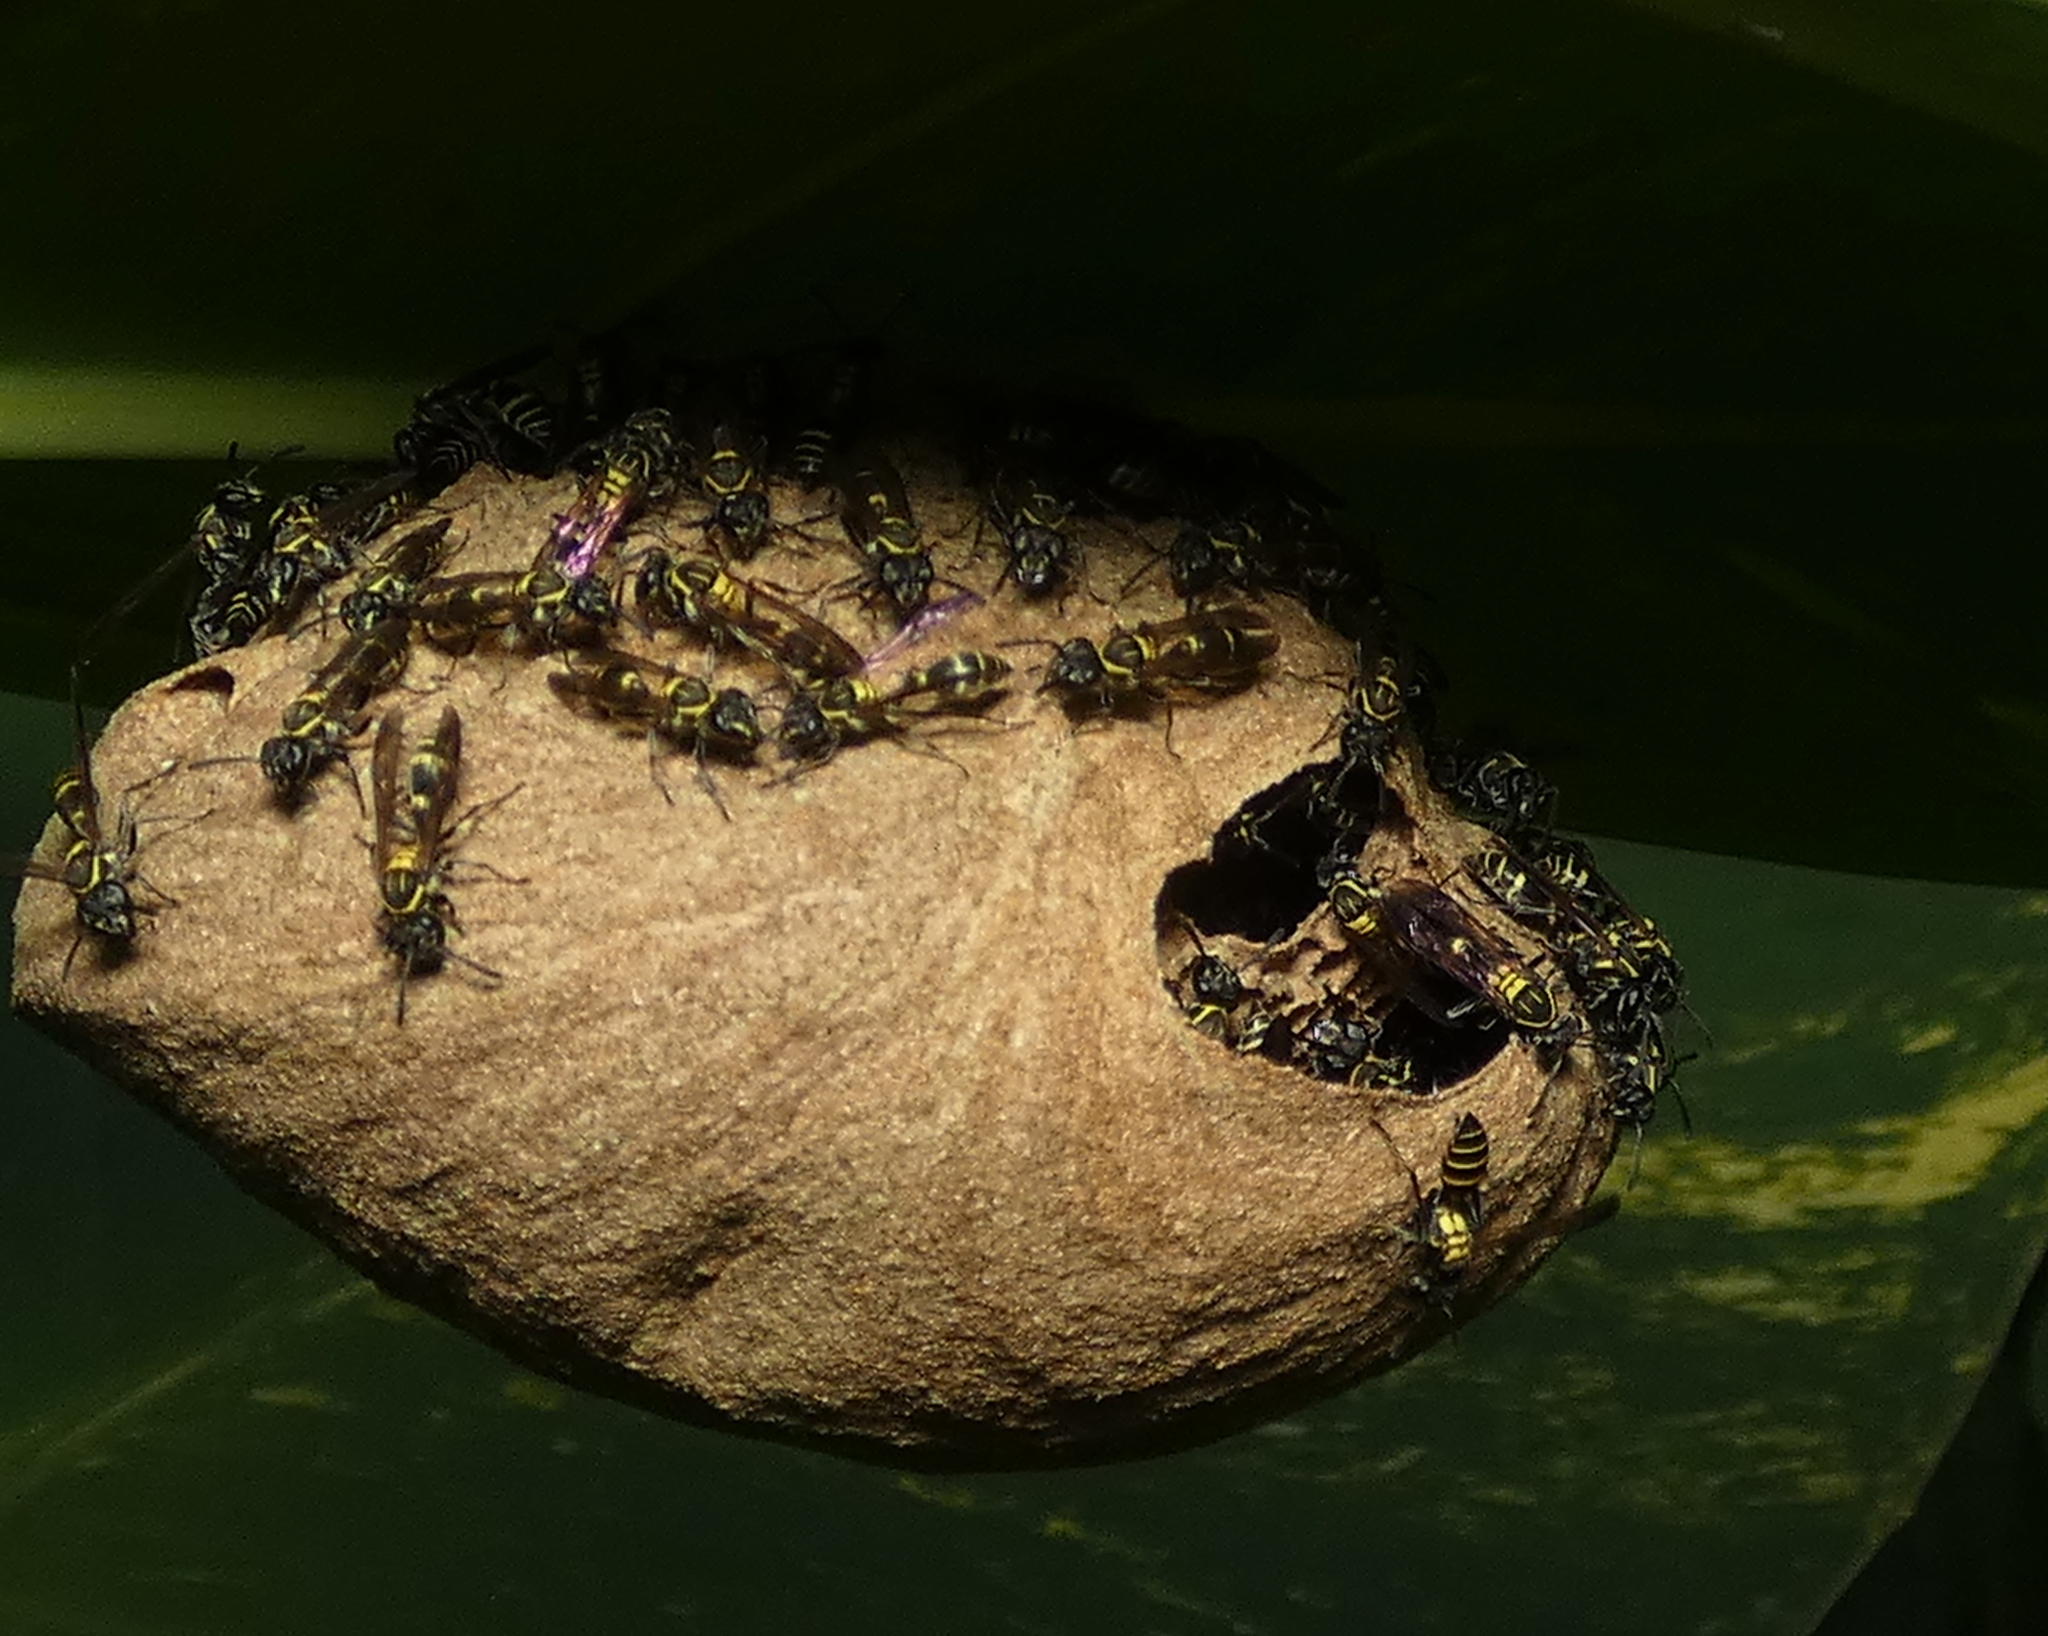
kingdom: Animalia
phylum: Arthropoda
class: Insecta
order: Hymenoptera
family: Eumenidae
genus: Polybia
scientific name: Polybia occidentalis
